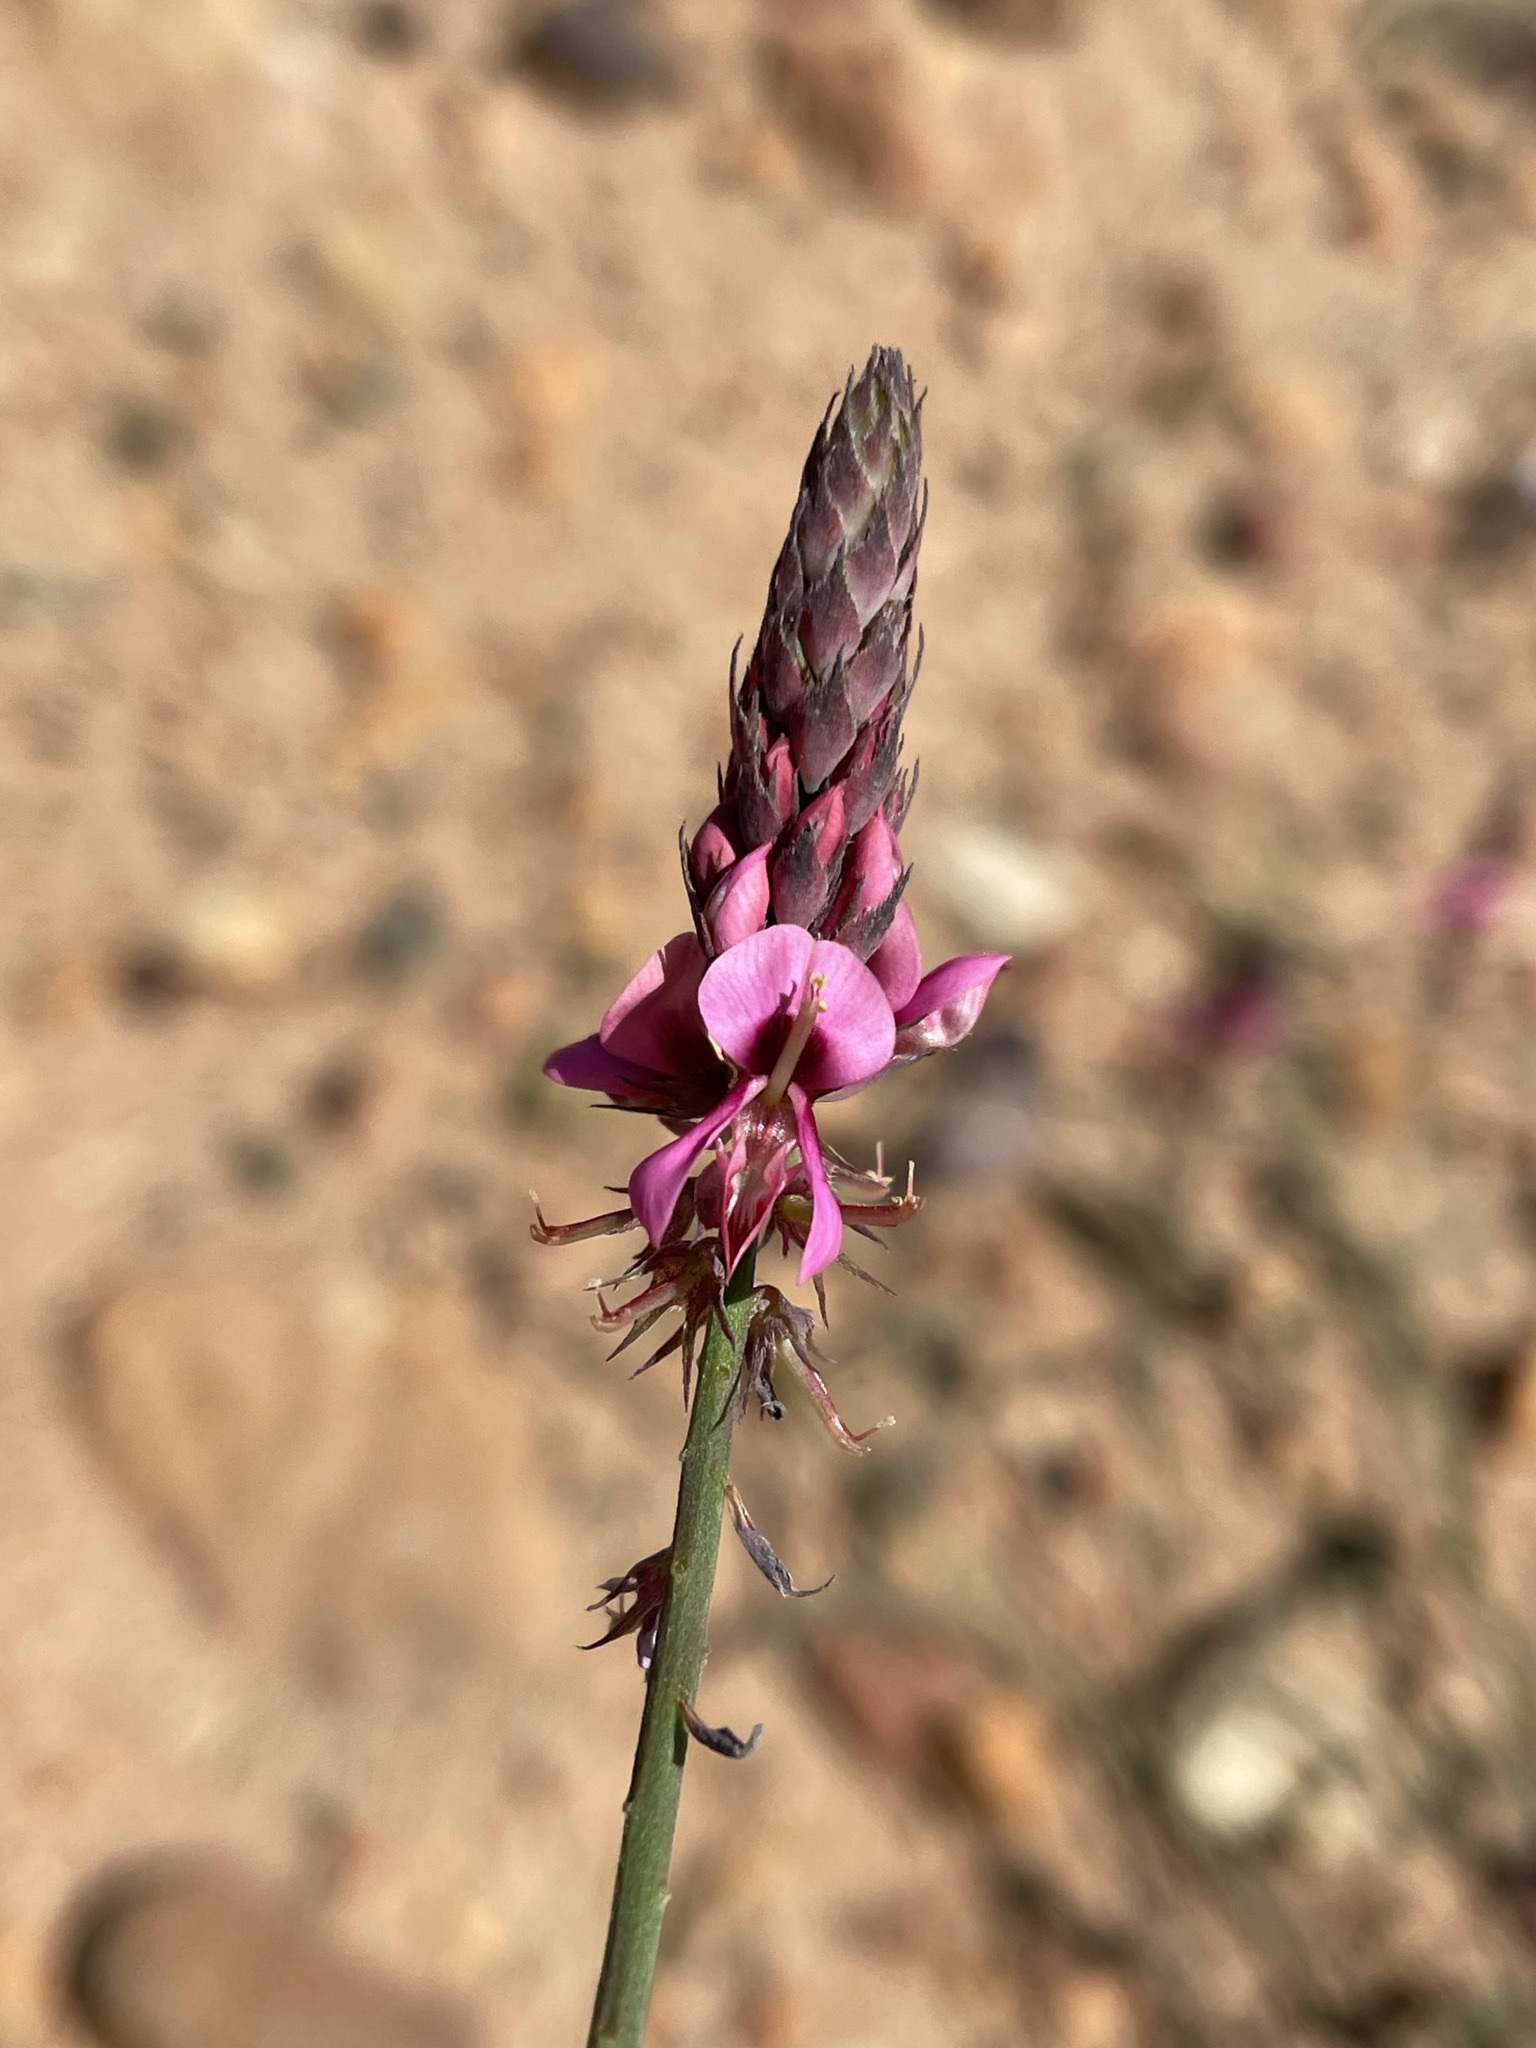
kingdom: Plantae
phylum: Tracheophyta
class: Magnoliopsida
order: Fabales
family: Fabaceae
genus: Indigofera
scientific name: Indigofera venusta
